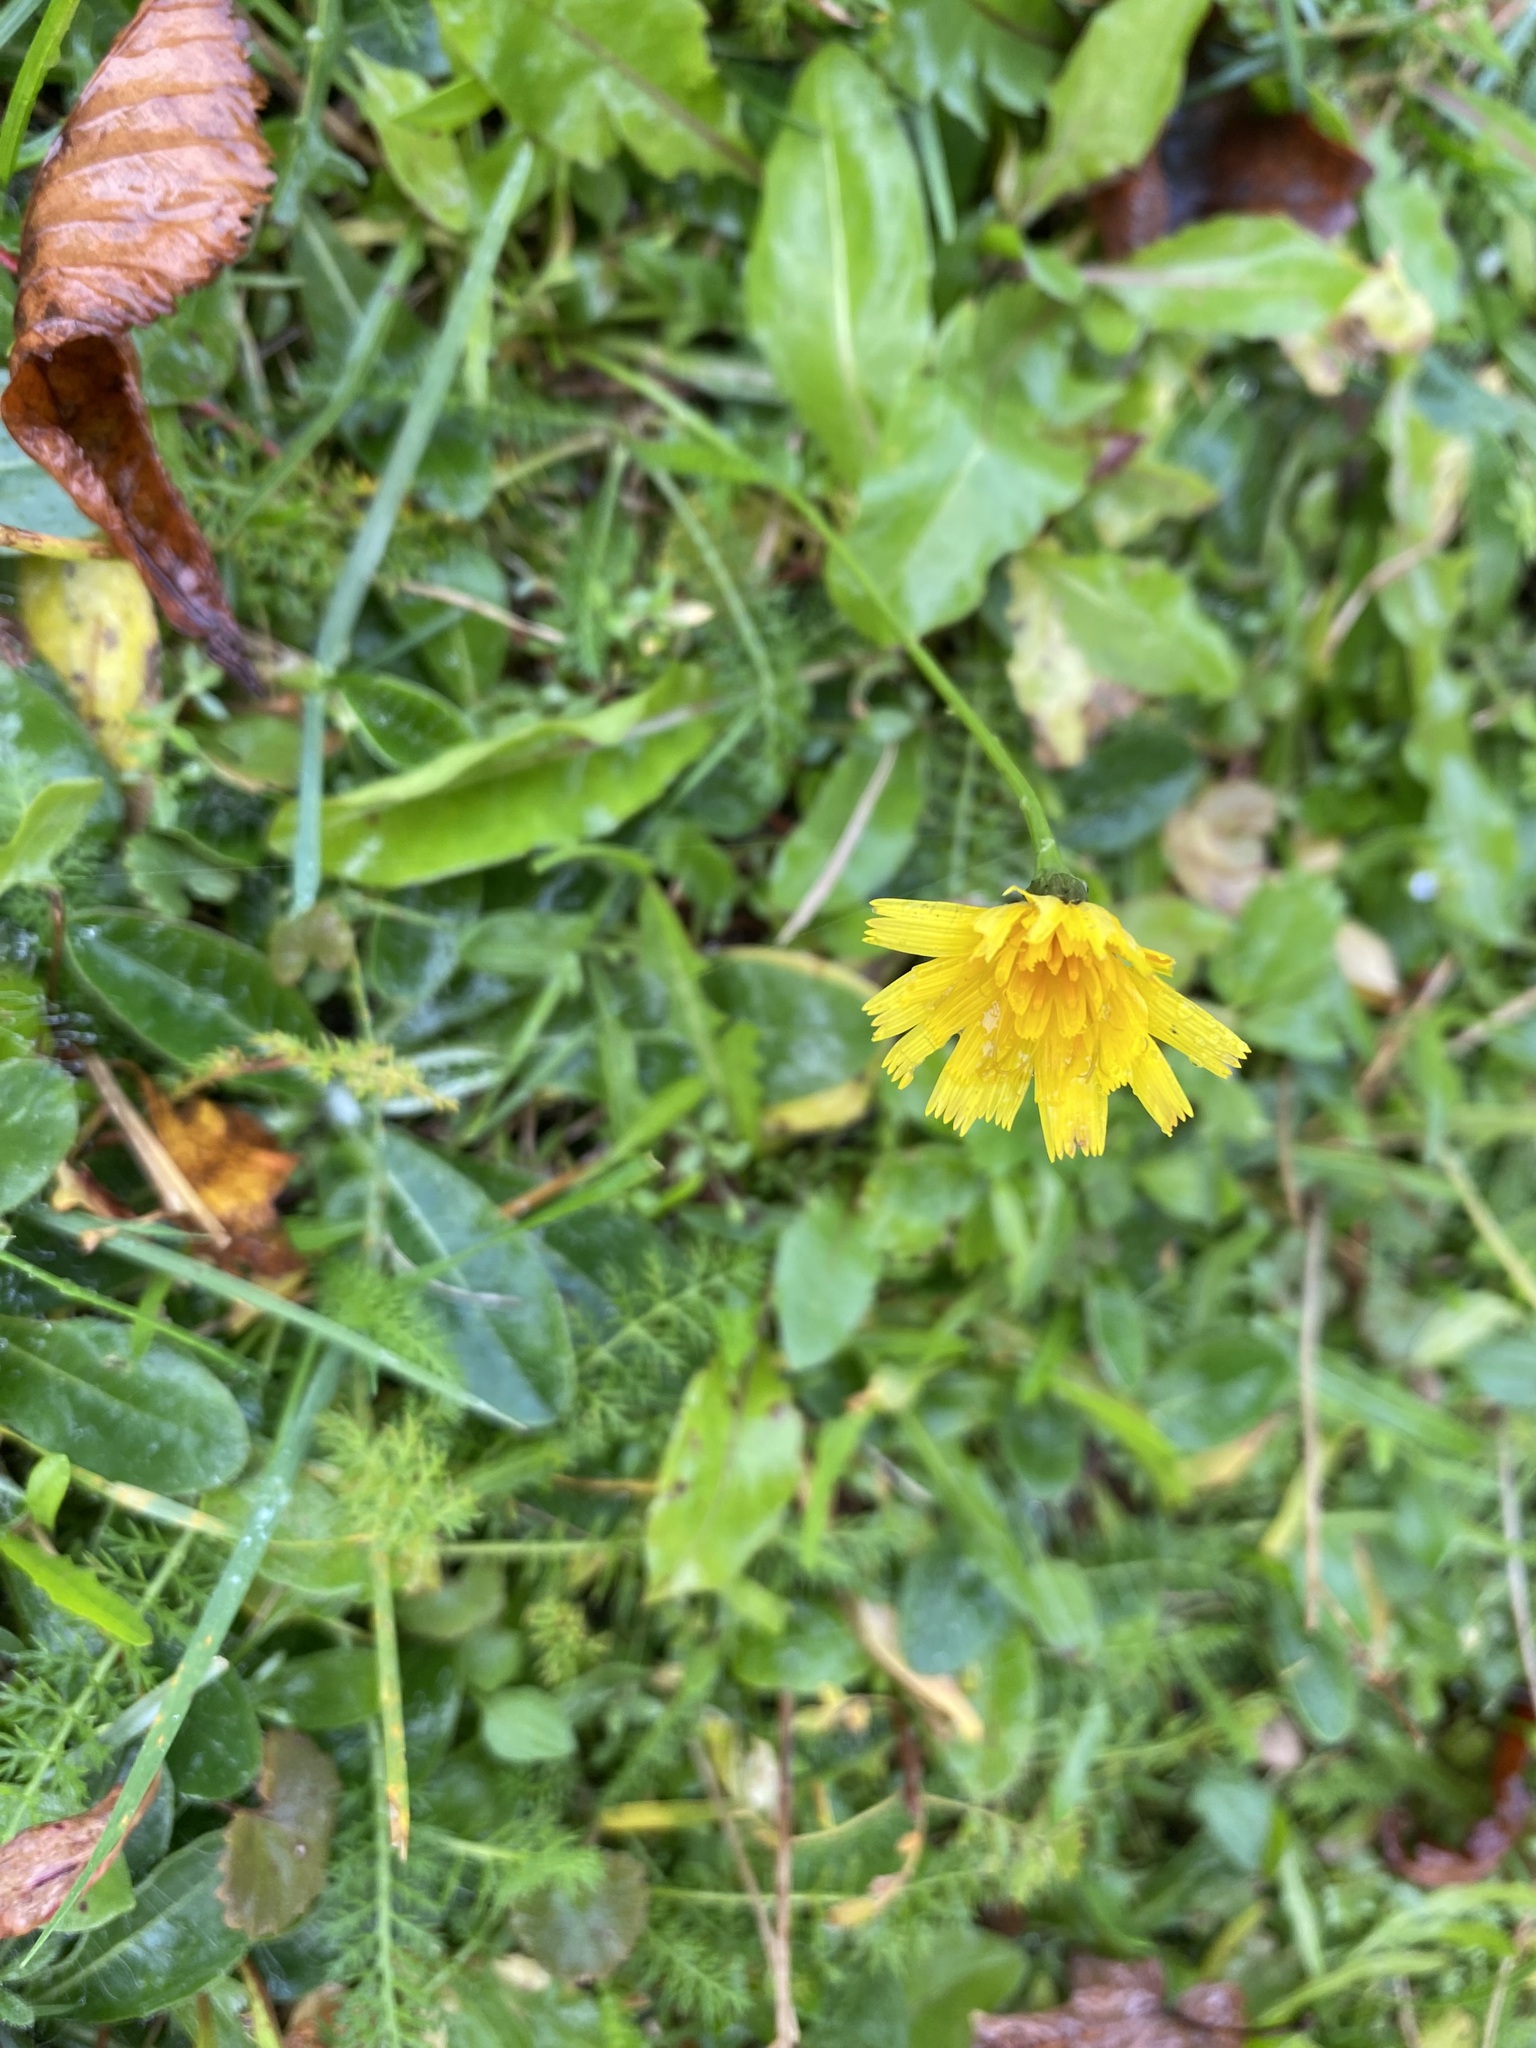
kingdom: Plantae
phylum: Tracheophyta
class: Magnoliopsida
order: Asterales
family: Asteraceae
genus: Scorzoneroides
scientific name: Scorzoneroides autumnalis
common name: Autumn hawkbit
